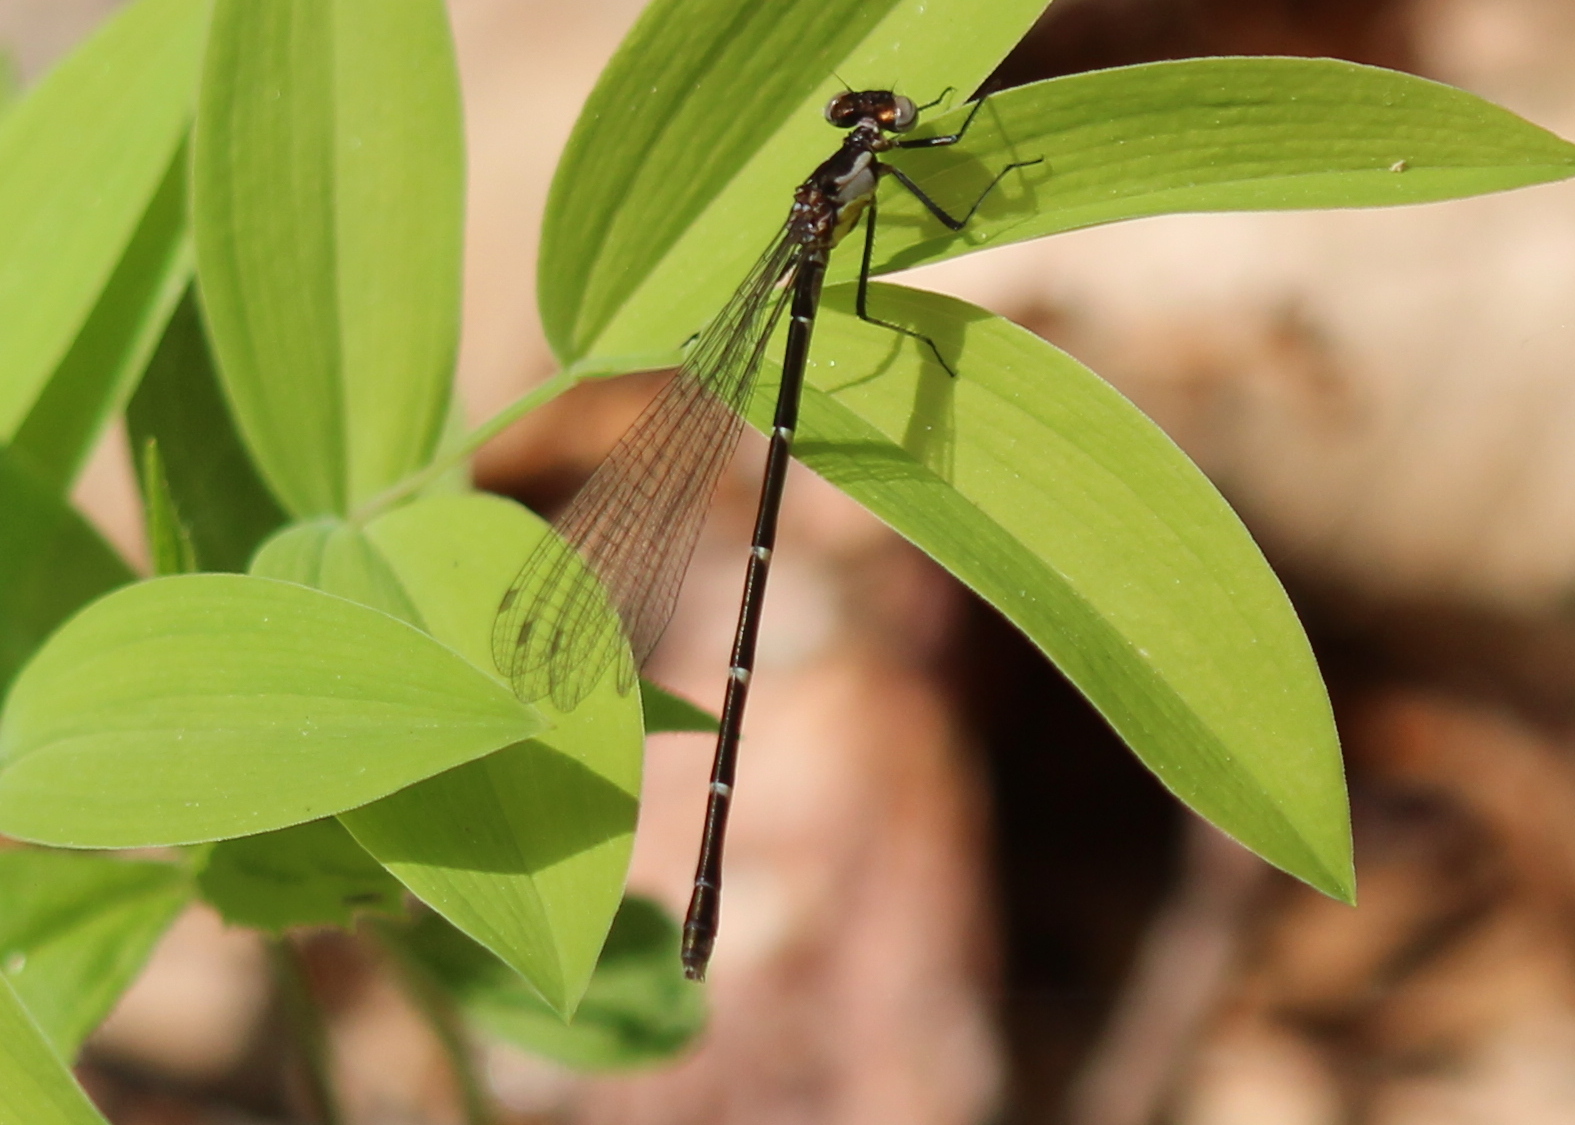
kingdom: Animalia
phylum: Arthropoda
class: Insecta
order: Odonata
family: Coenagrionidae
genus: Chromagrion
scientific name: Chromagrion conditum
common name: Aurora damsel
